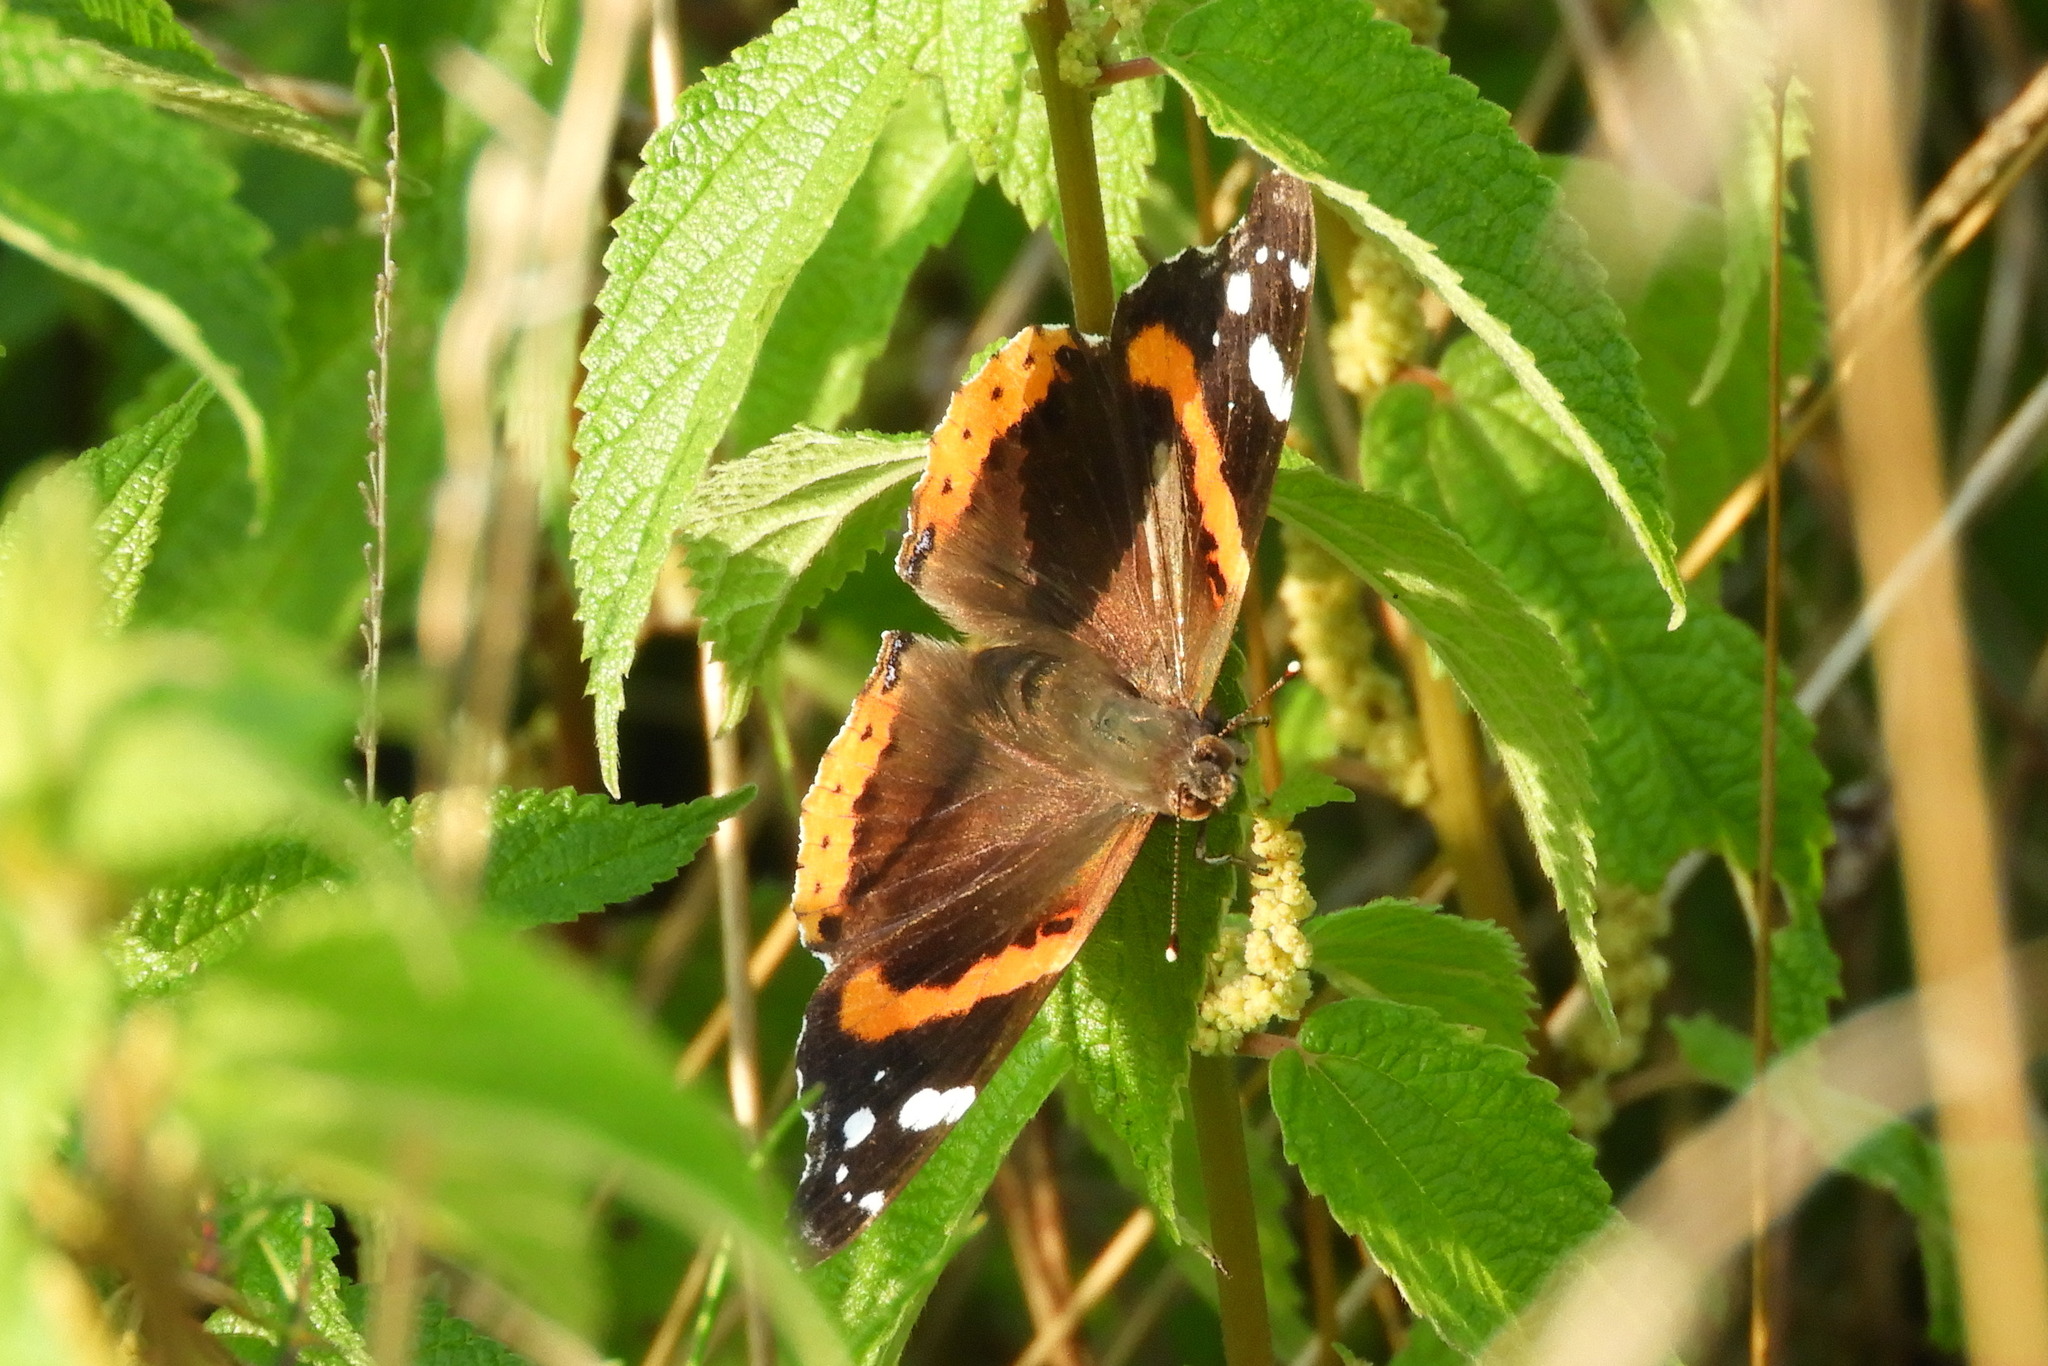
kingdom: Animalia
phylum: Arthropoda
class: Insecta
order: Lepidoptera
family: Nymphalidae
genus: Vanessa
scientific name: Vanessa atalanta
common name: Red admiral
